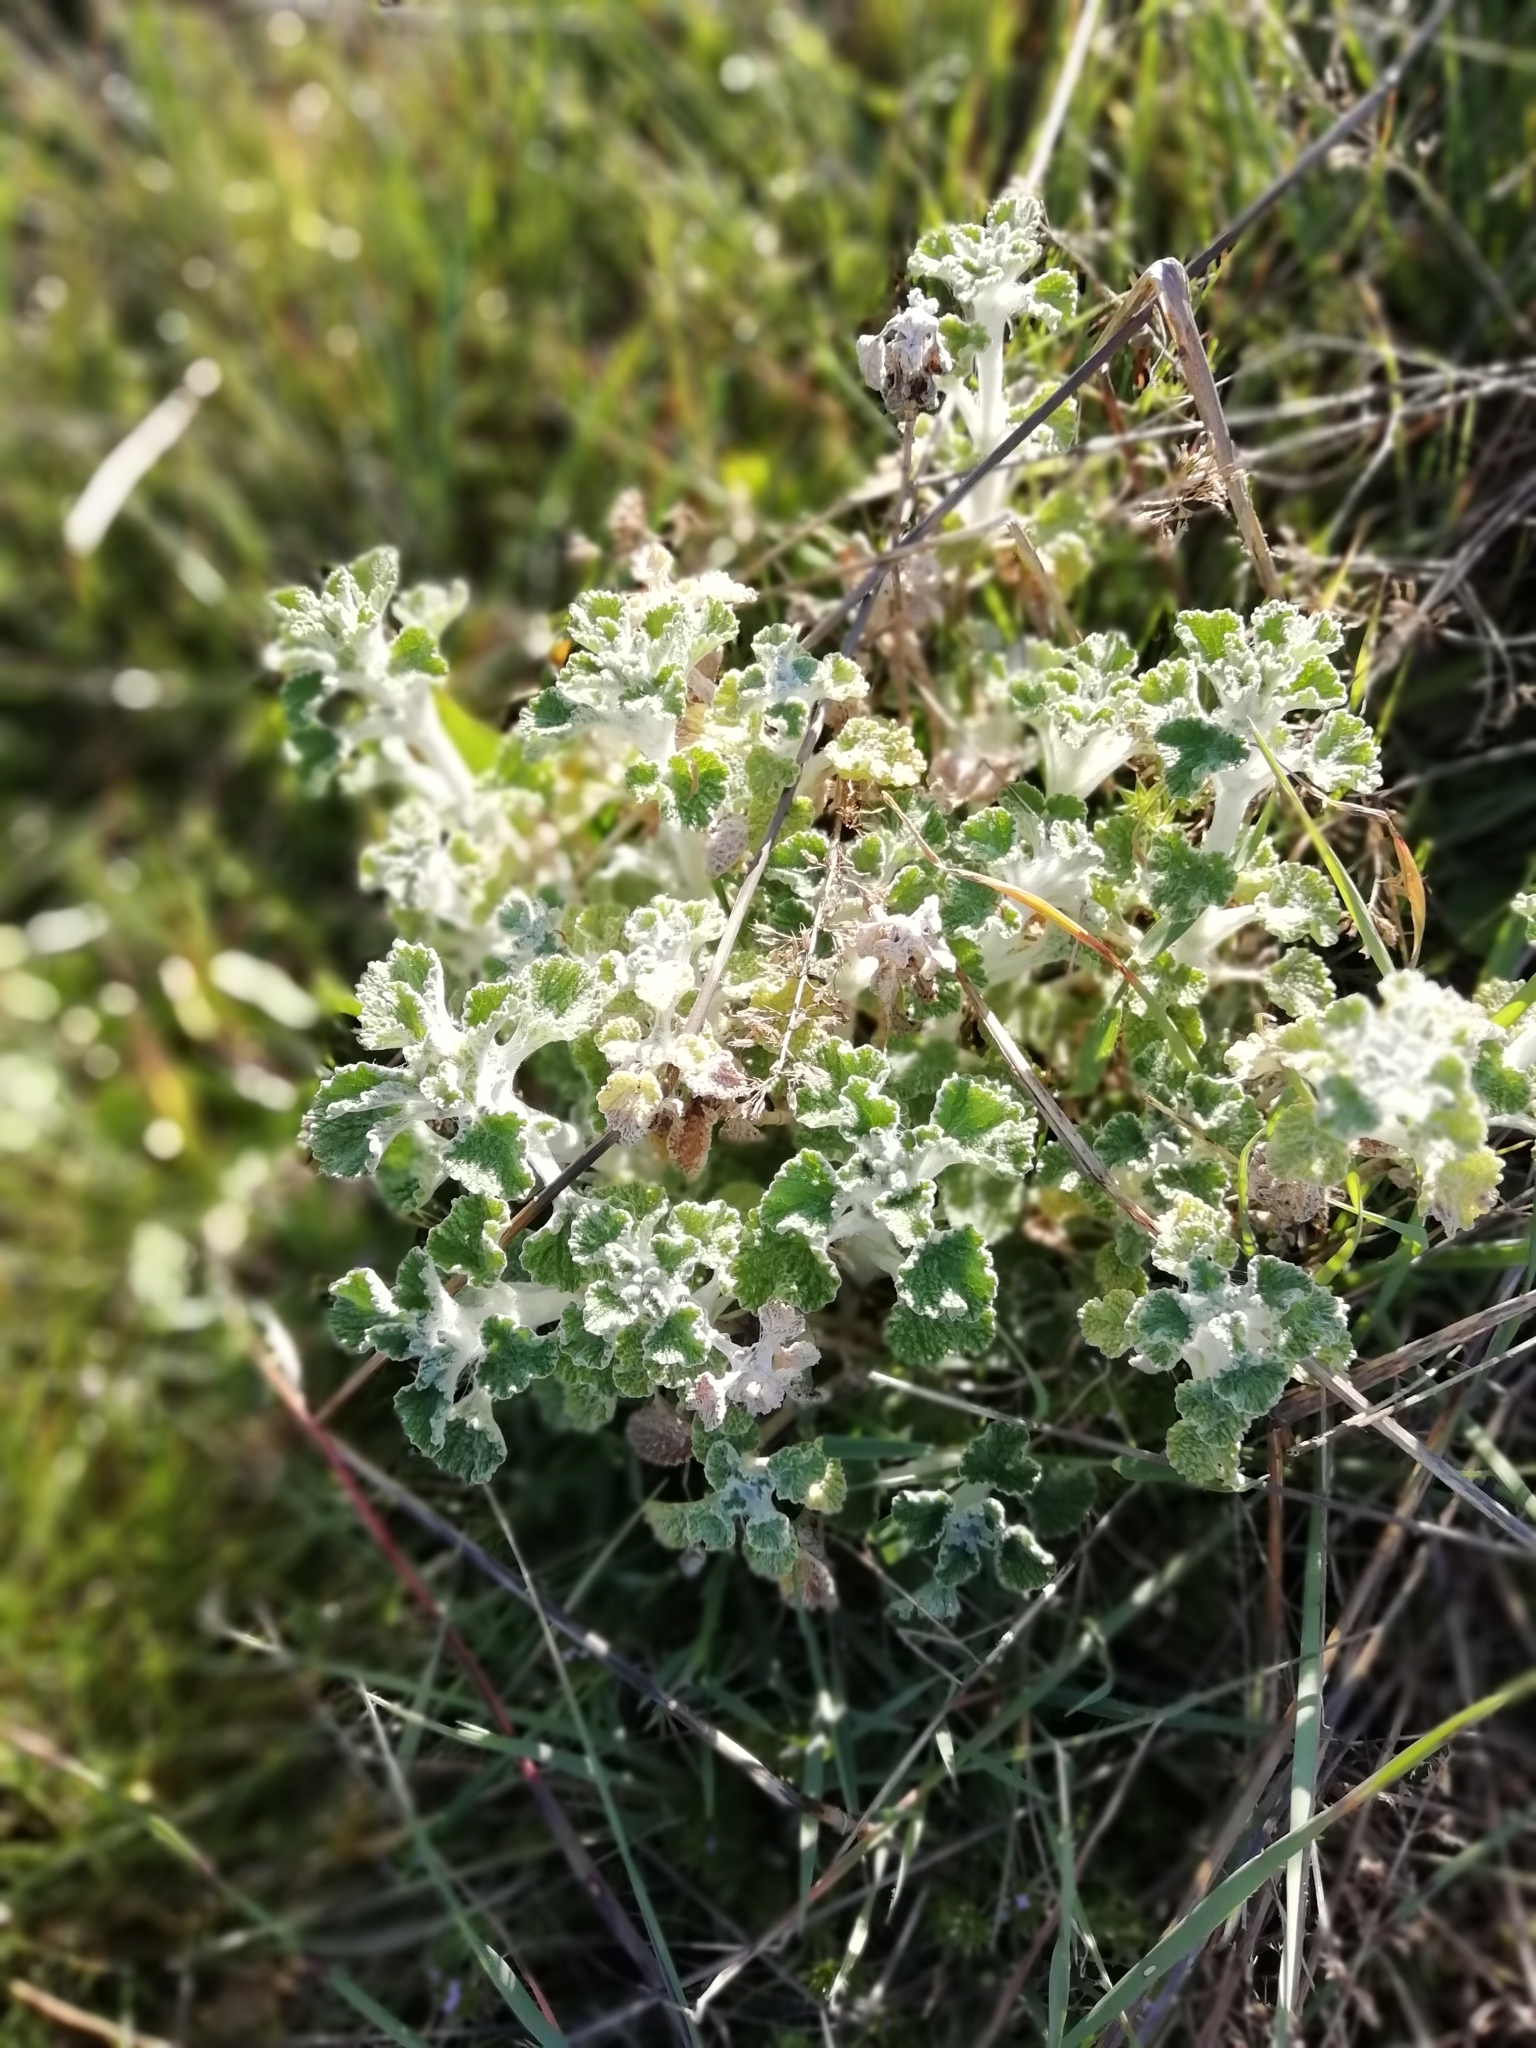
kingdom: Plantae
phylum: Tracheophyta
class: Magnoliopsida
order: Lamiales
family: Lamiaceae
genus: Marrubium
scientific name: Marrubium vulgare
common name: Horehound
